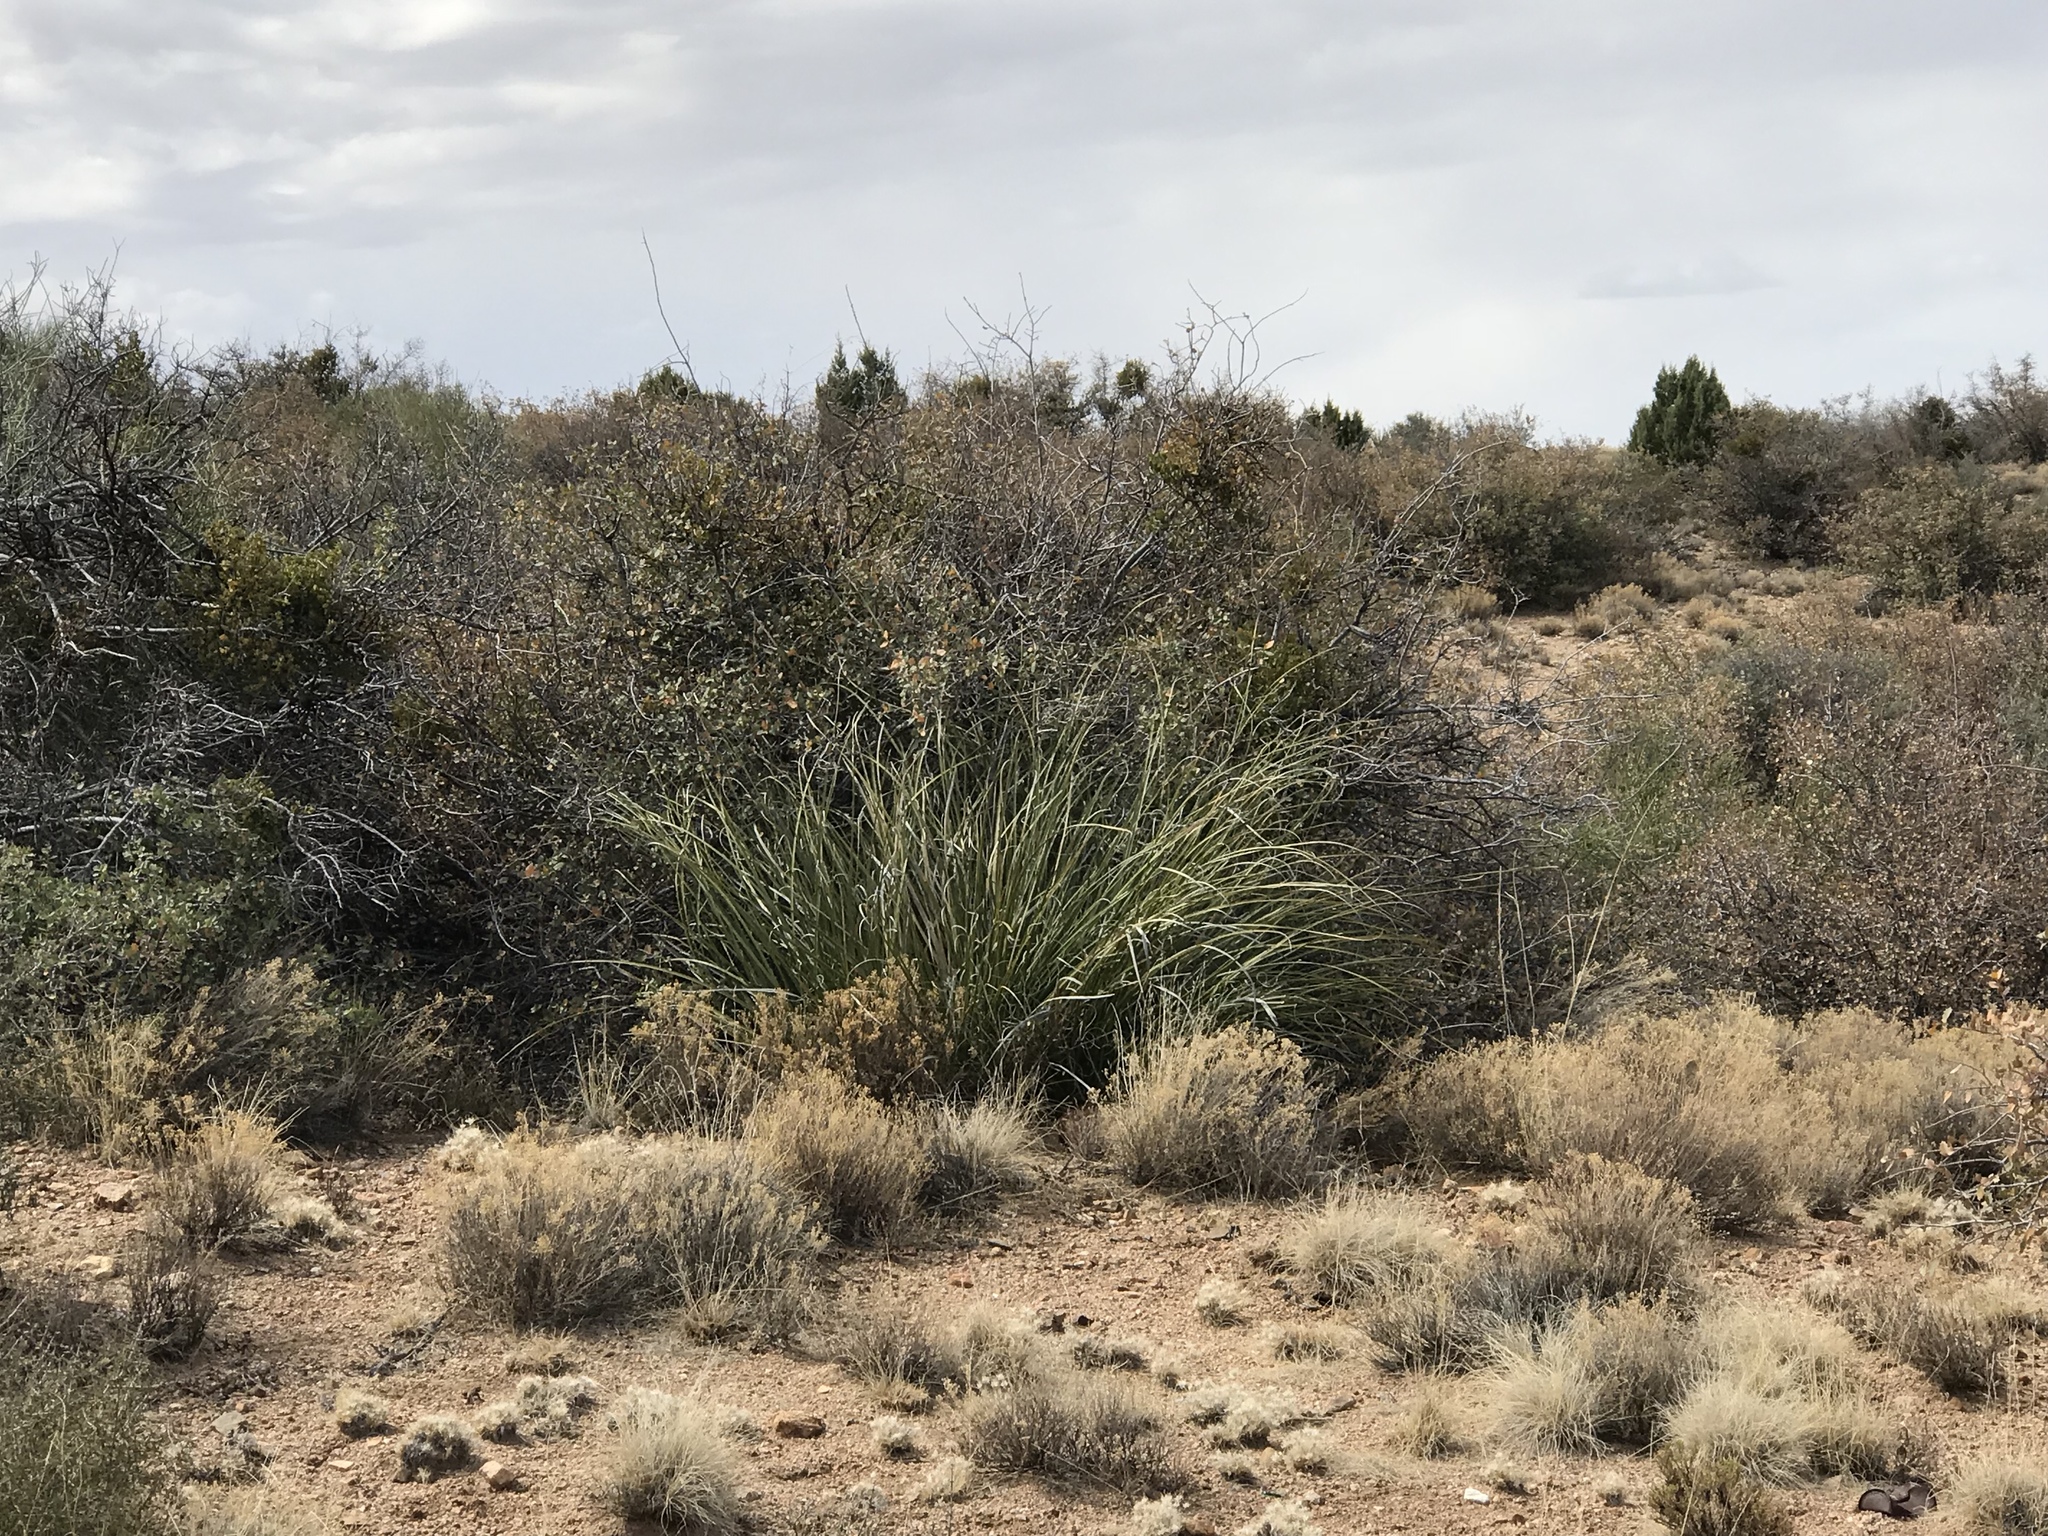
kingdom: Plantae
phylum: Tracheophyta
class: Liliopsida
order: Asparagales
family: Asparagaceae
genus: Nolina
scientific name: Nolina microcarpa
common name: Bear-grass
